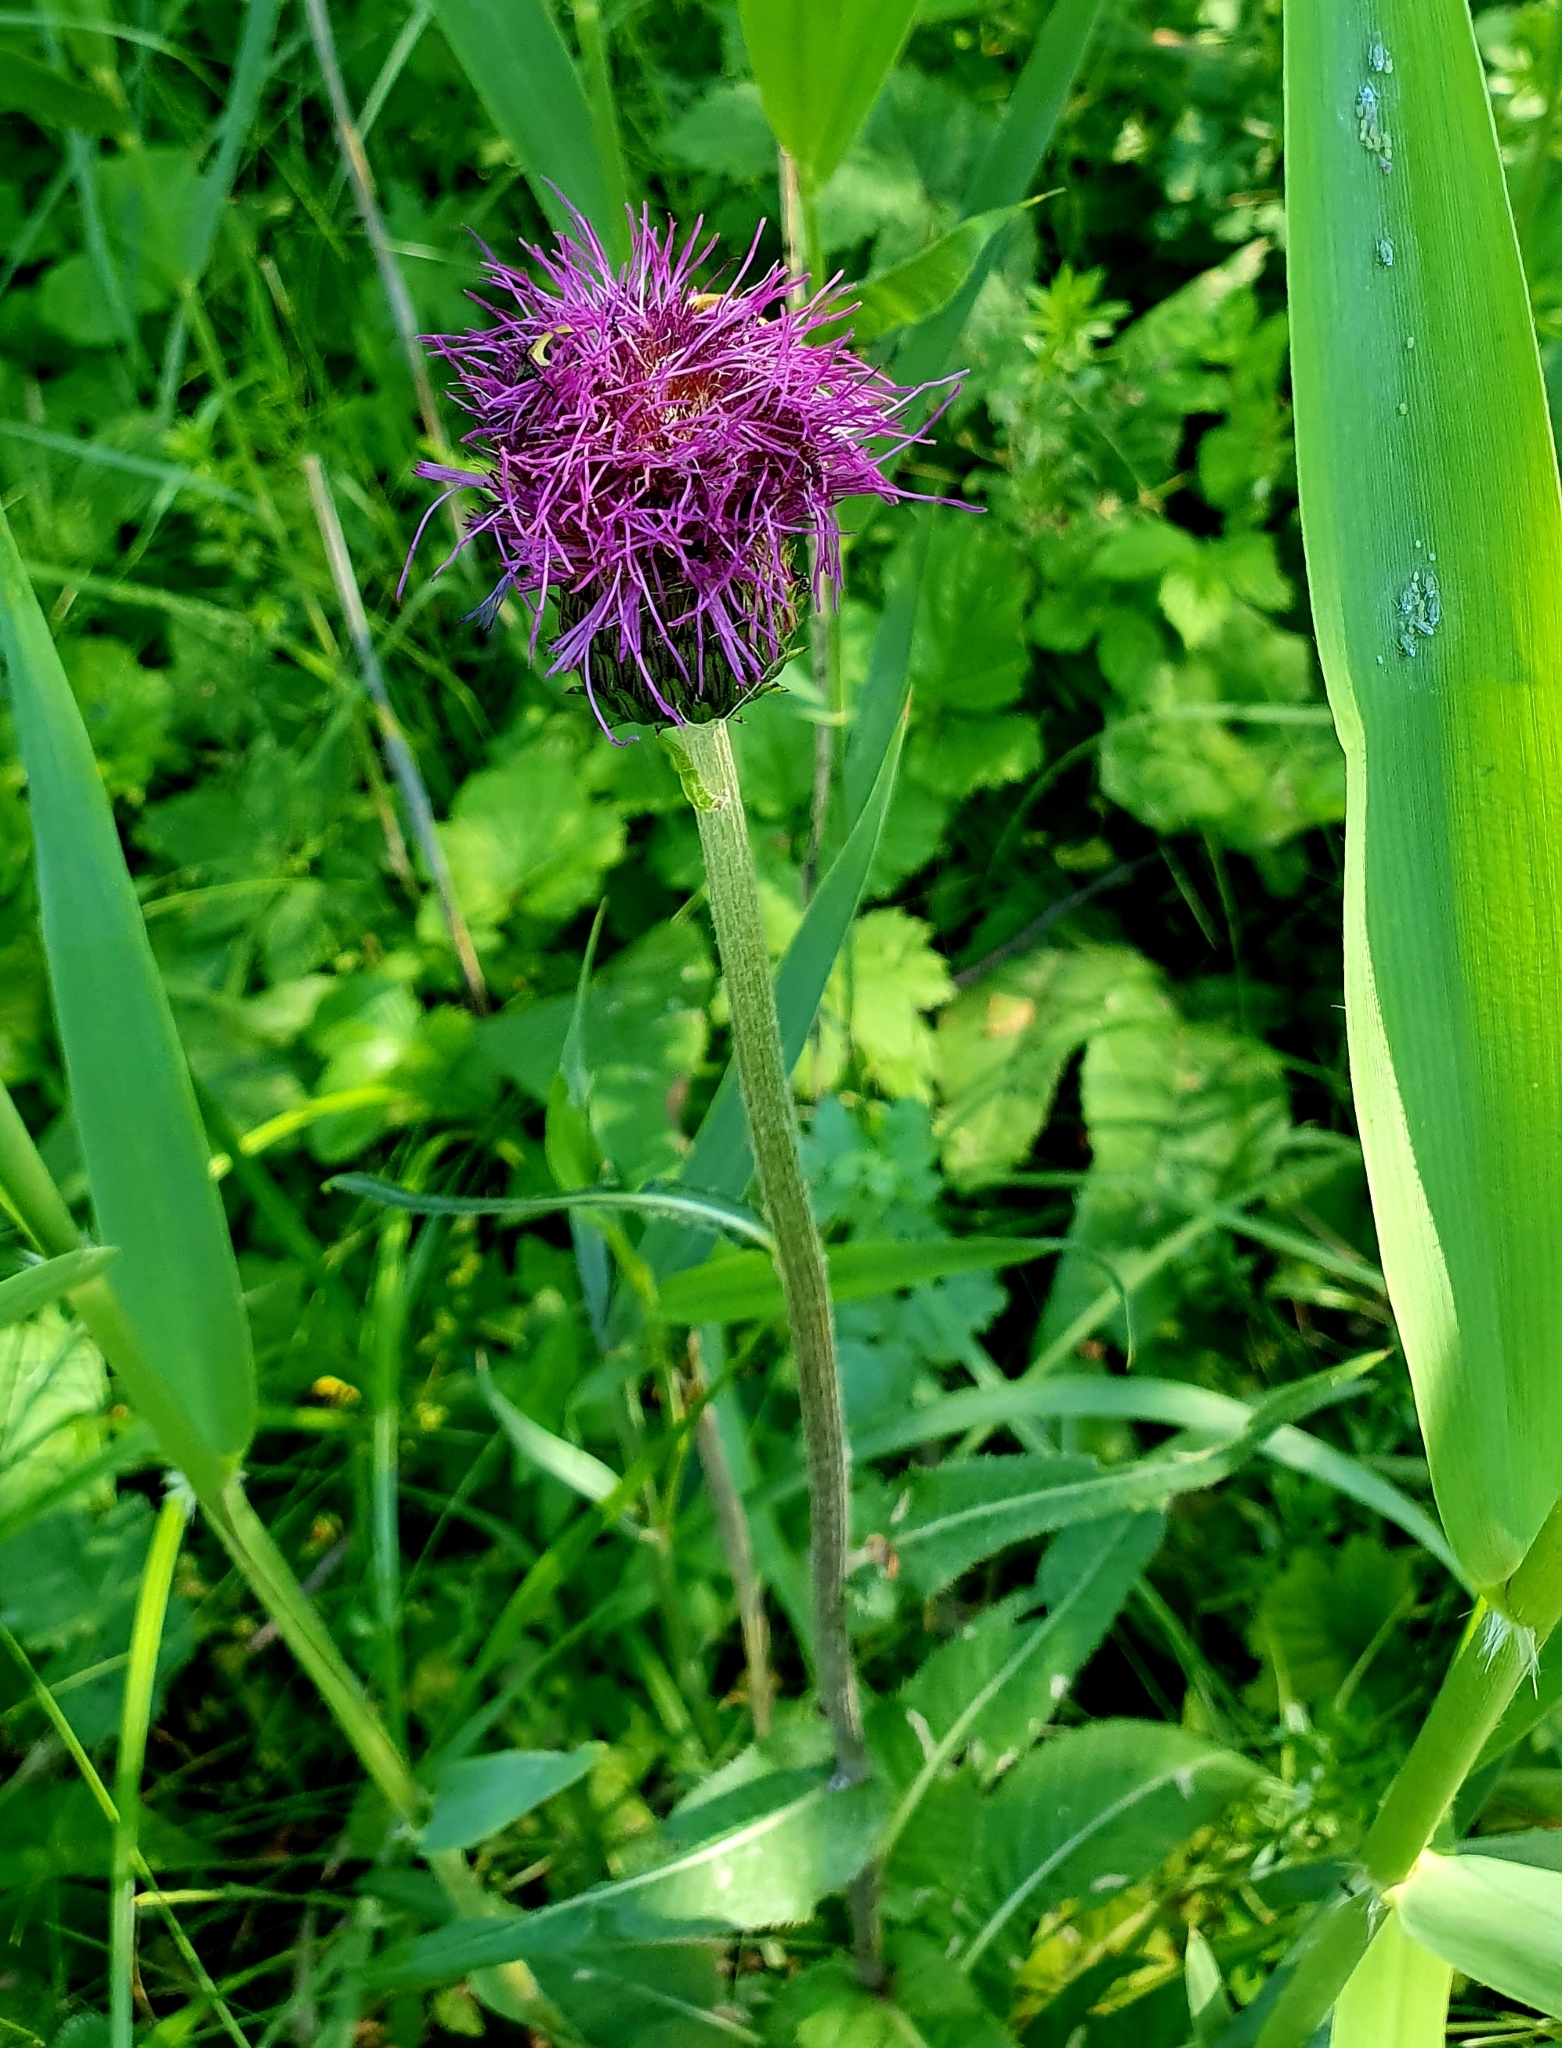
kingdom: Plantae
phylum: Tracheophyta
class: Magnoliopsida
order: Asterales
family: Asteraceae
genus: Cirsium
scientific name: Cirsium heterophyllum
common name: Melancholy thistle
